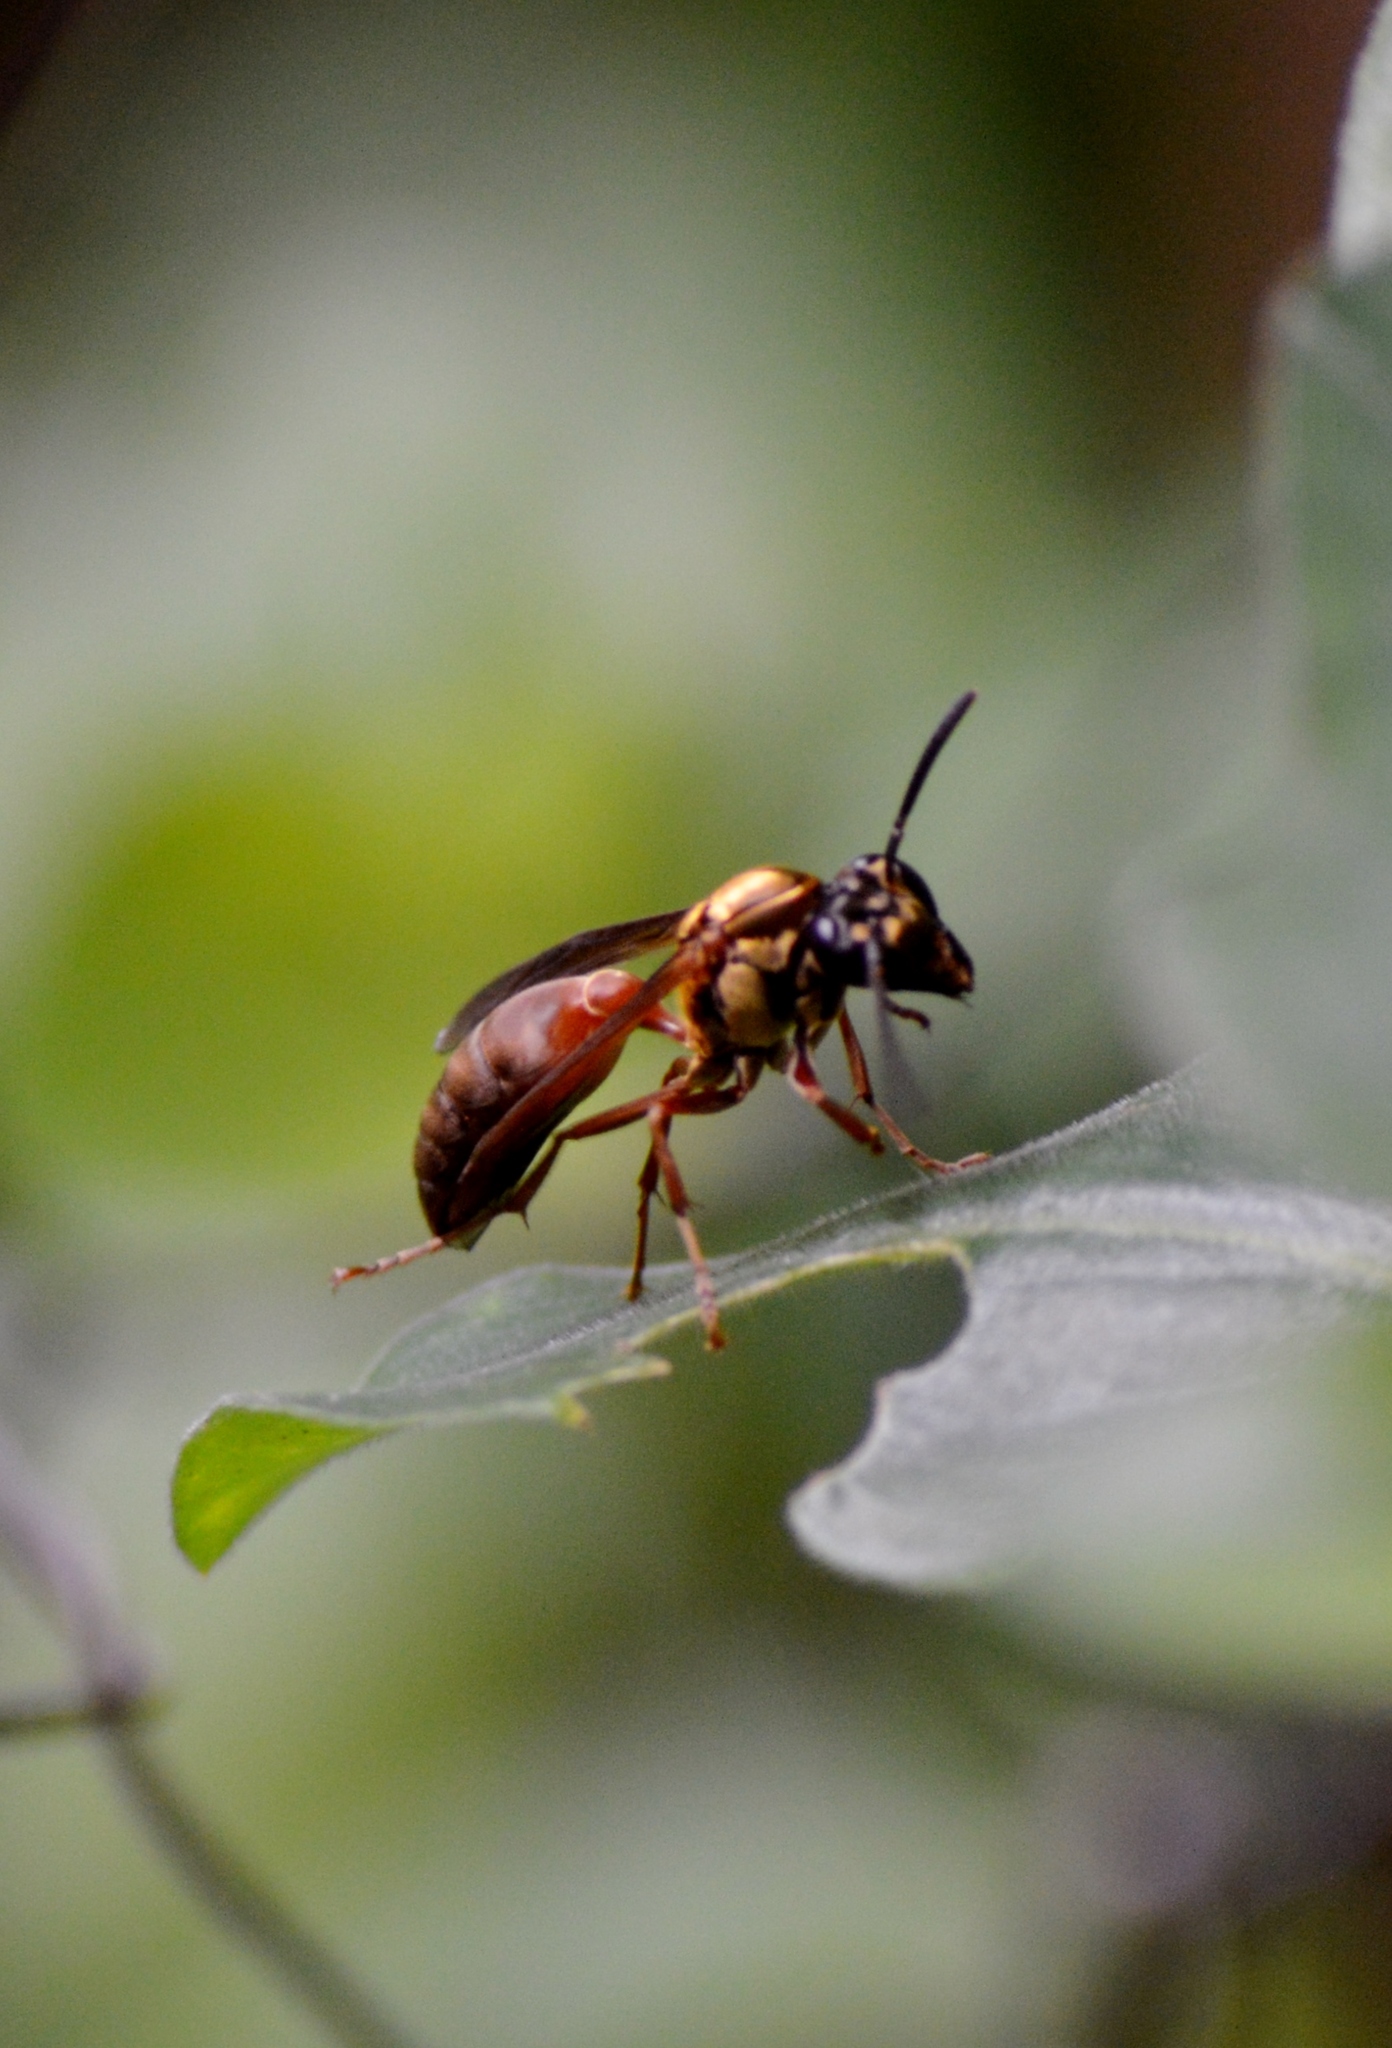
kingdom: Animalia
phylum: Arthropoda
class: Insecta
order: Hymenoptera
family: Eumenidae
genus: Polybia
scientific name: Polybia chrysothorax
